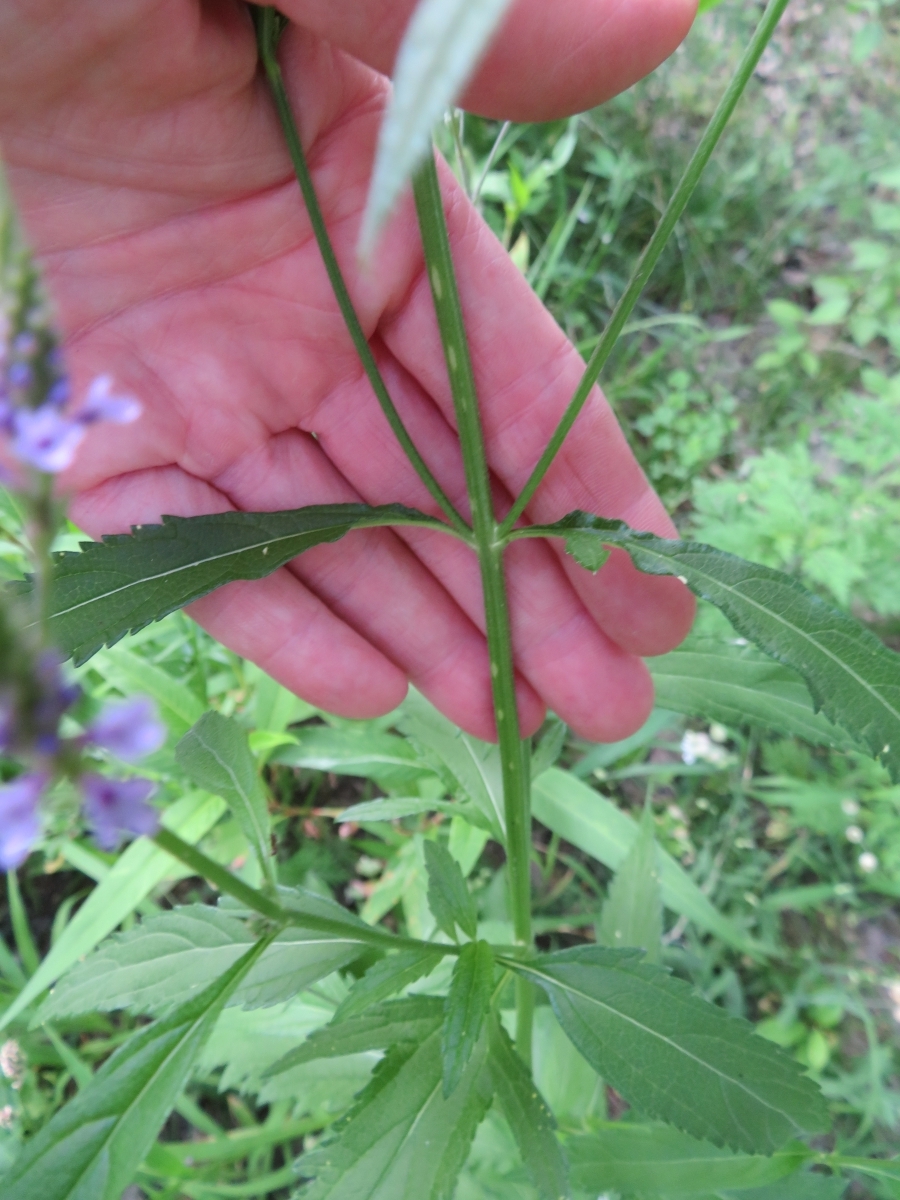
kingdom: Plantae
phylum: Tracheophyta
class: Magnoliopsida
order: Lamiales
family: Verbenaceae
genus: Verbena
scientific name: Verbena hastata
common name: American blue vervain
